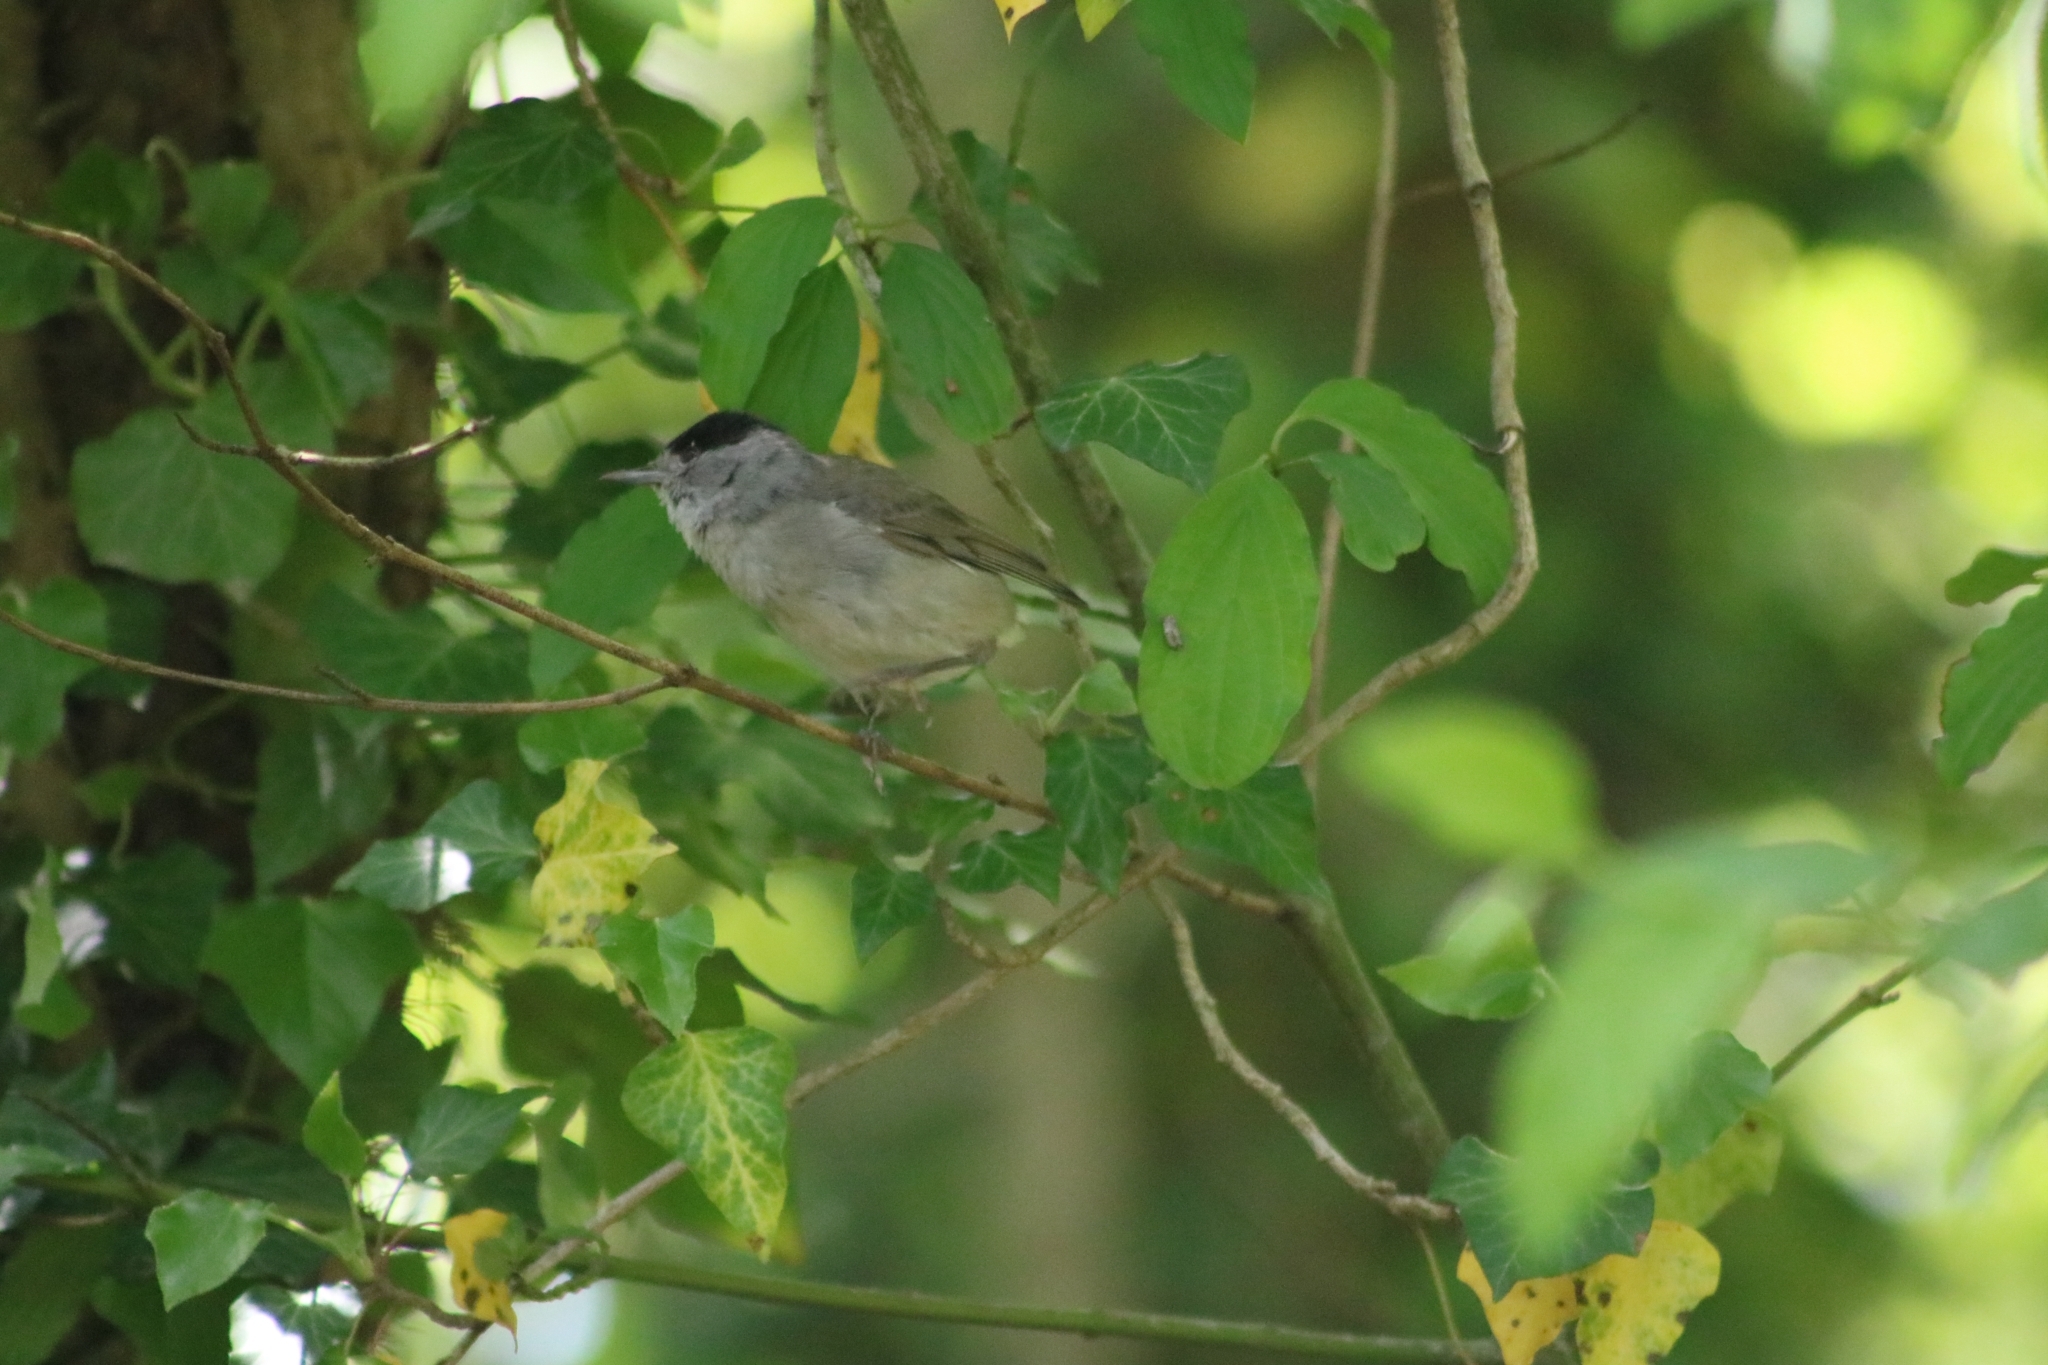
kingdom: Animalia
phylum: Chordata
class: Aves
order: Passeriformes
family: Sylviidae
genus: Sylvia
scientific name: Sylvia atricapilla
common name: Eurasian blackcap
